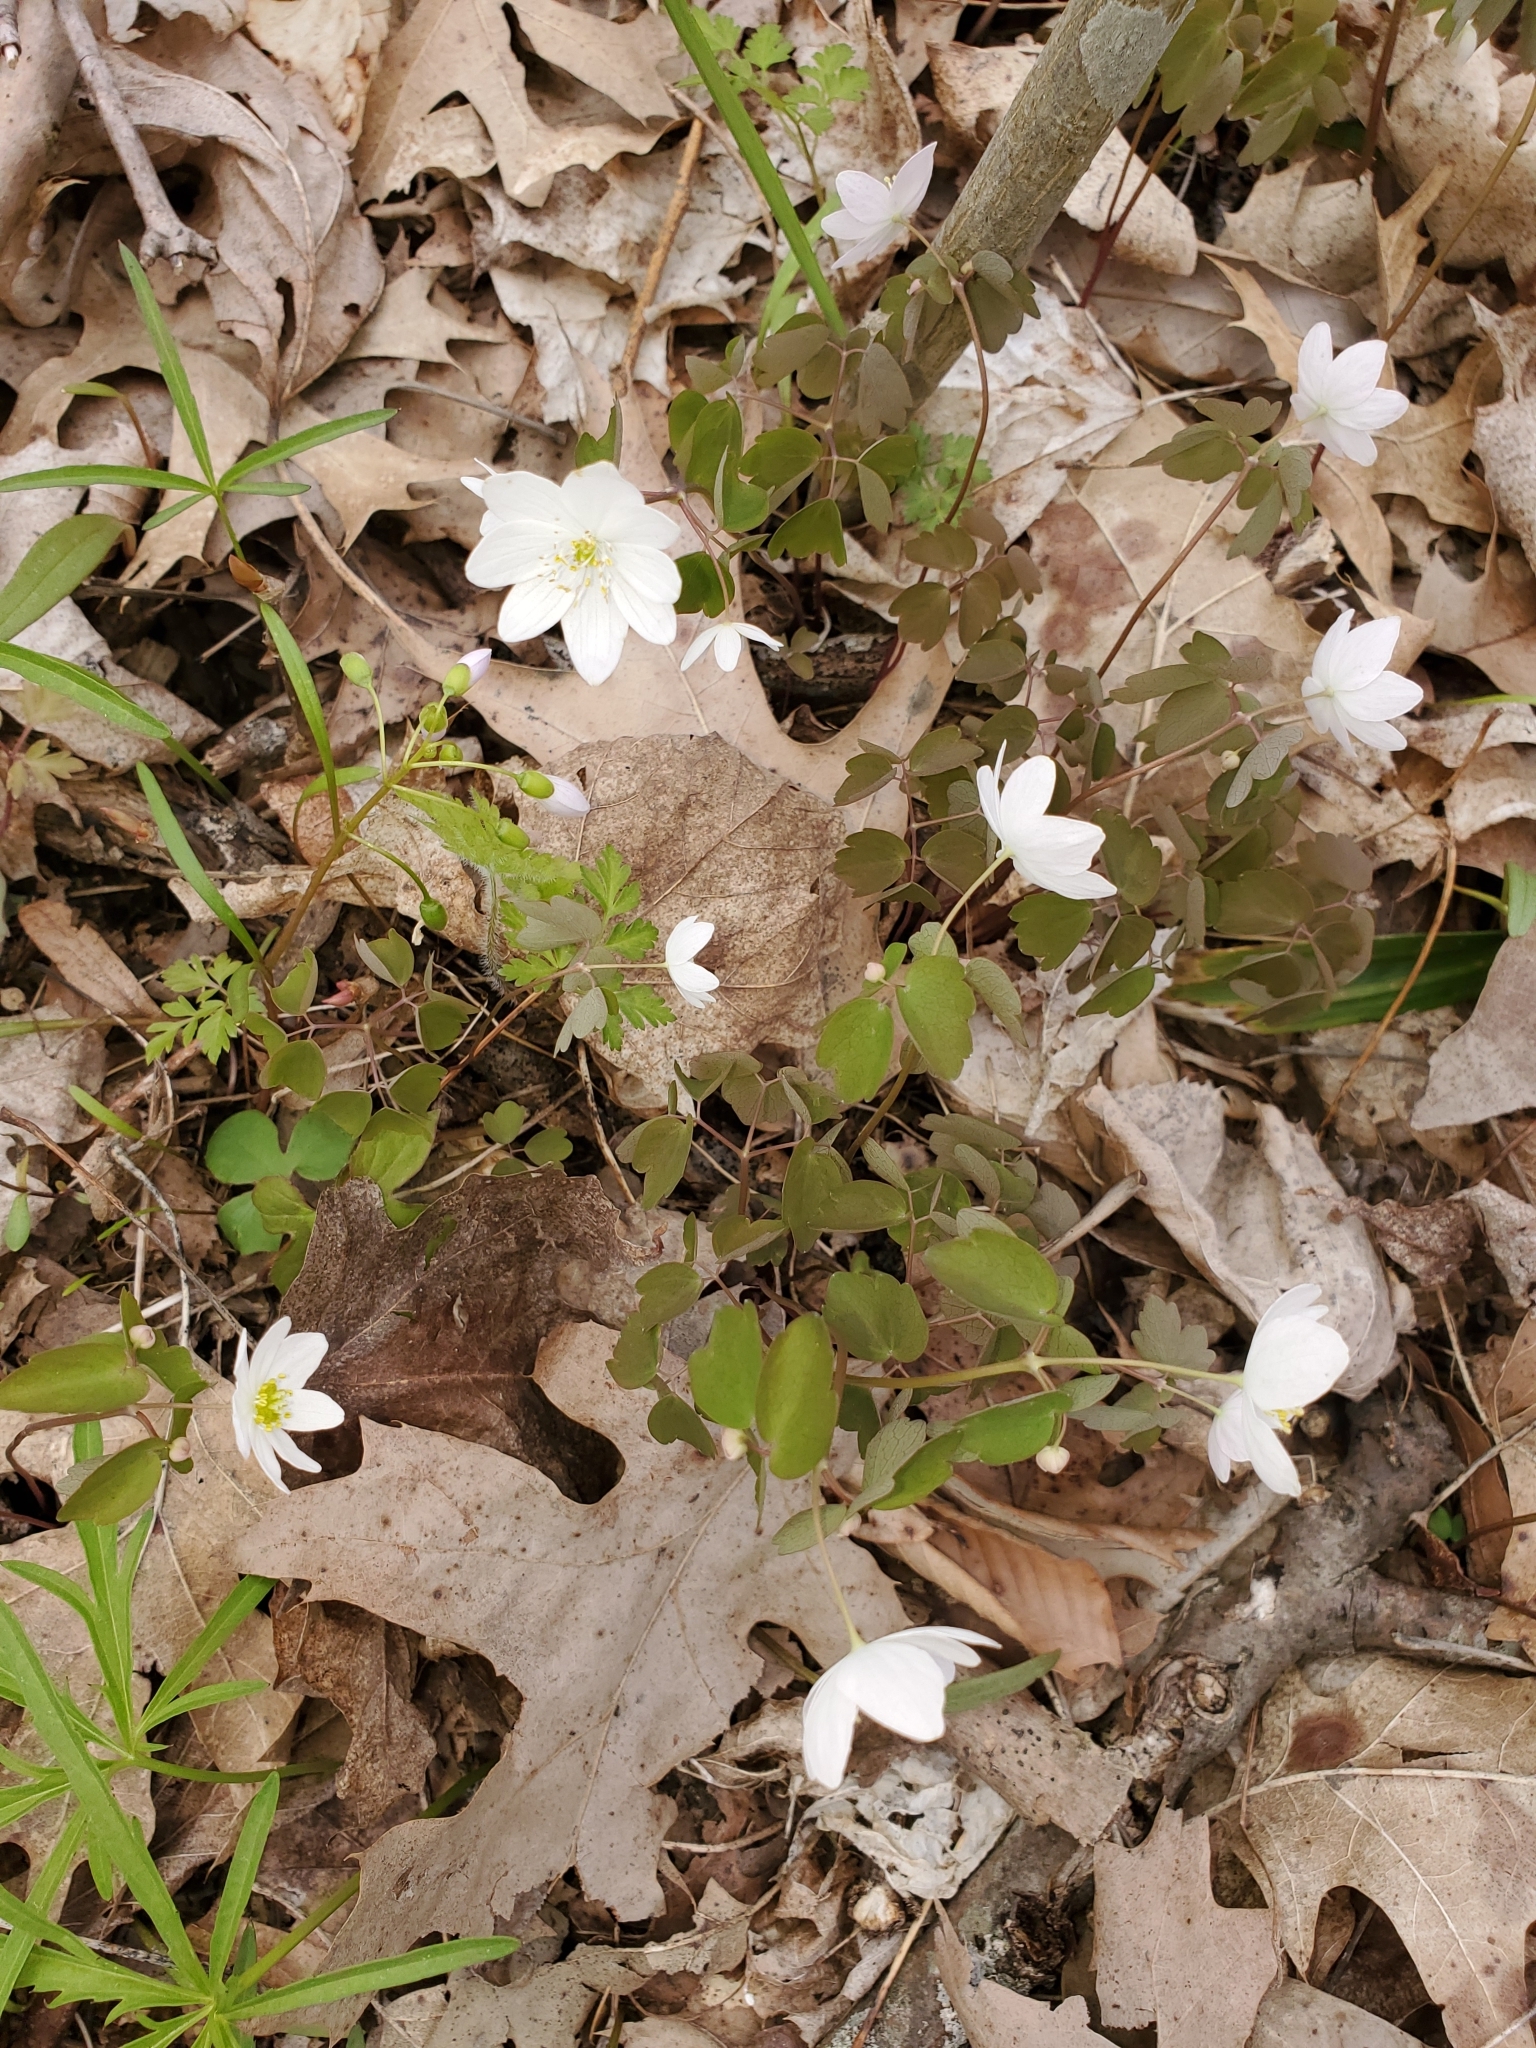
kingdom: Plantae
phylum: Tracheophyta
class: Magnoliopsida
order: Ranunculales
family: Ranunculaceae
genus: Thalictrum
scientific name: Thalictrum thalictroides
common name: Rue-anemone
